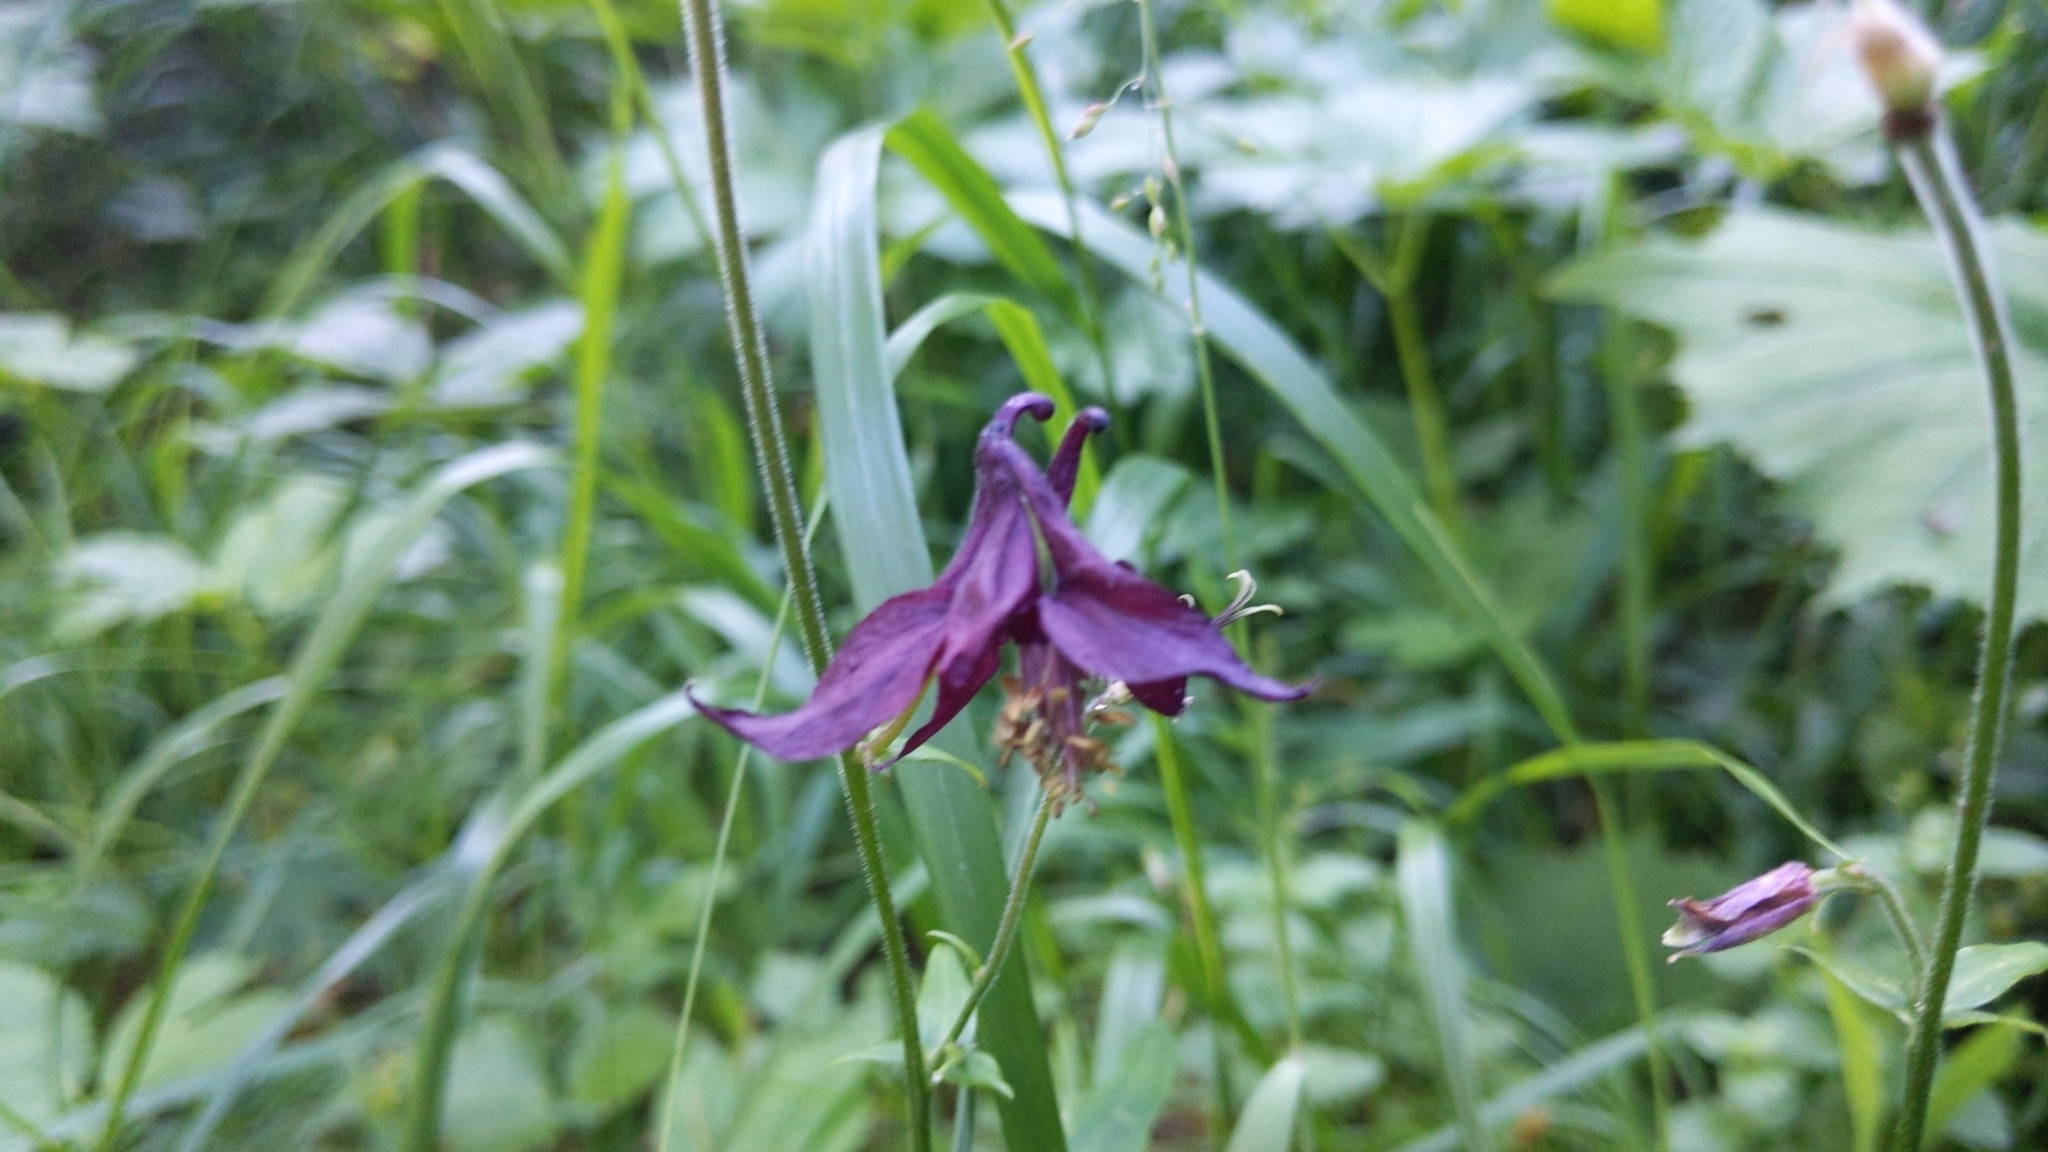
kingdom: Plantae
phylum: Tracheophyta
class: Magnoliopsida
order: Ranunculales
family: Ranunculaceae
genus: Aquilegia
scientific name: Aquilegia atrata
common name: Dark columbine
